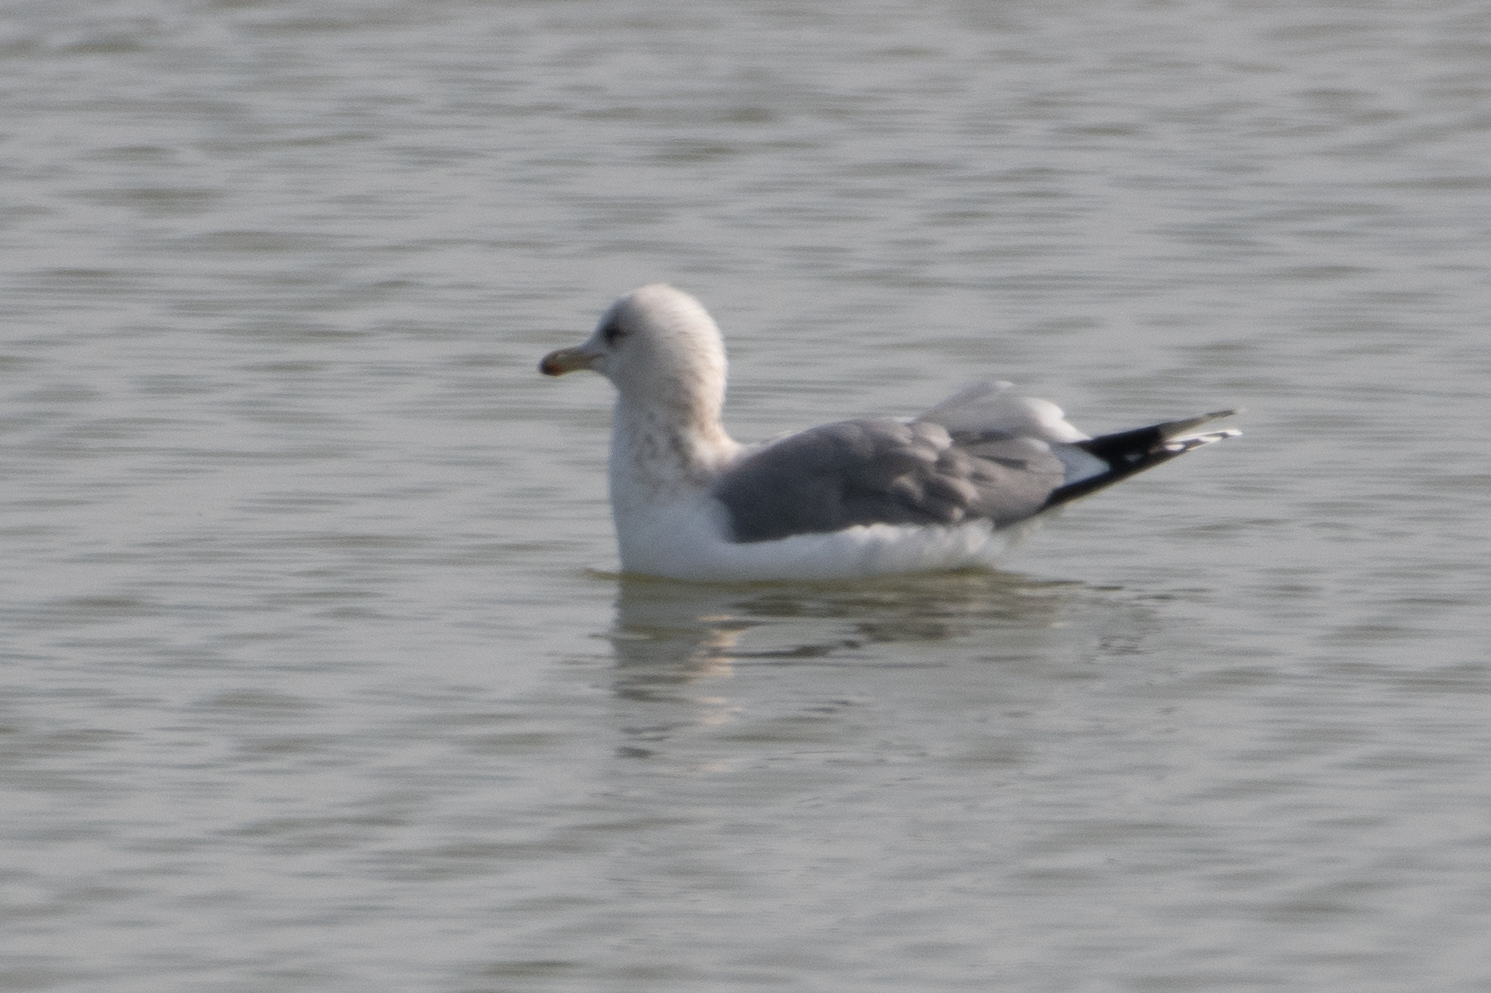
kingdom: Animalia
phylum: Chordata
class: Aves
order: Charadriiformes
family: Laridae
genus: Larus
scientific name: Larus californicus
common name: California gull
